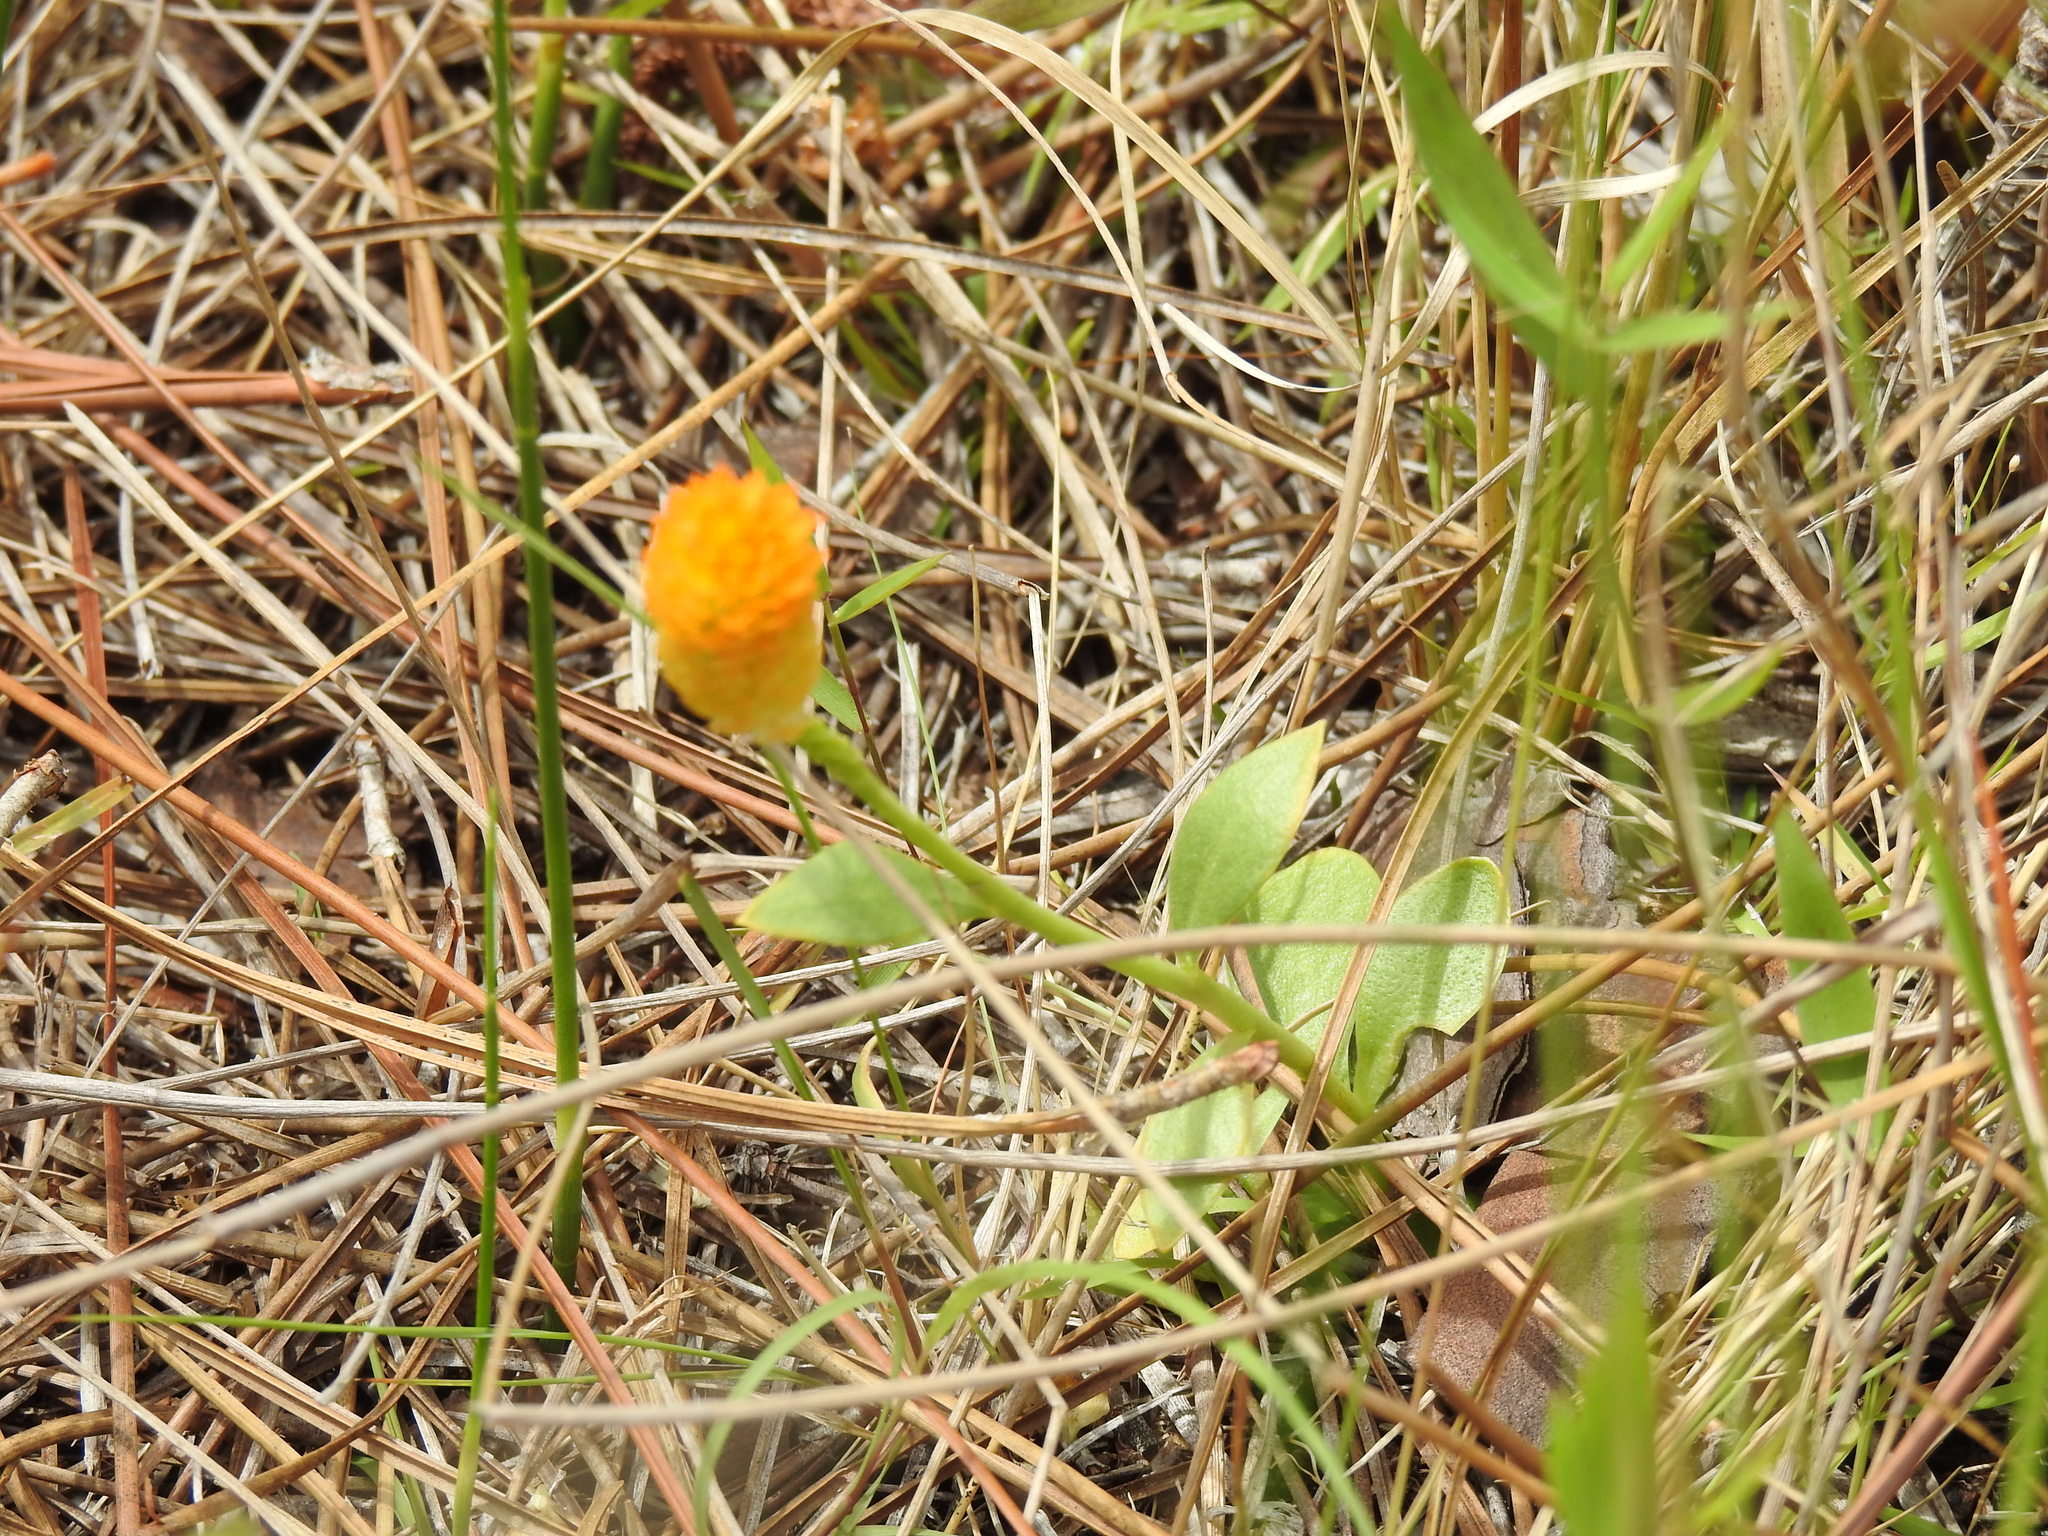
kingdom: Plantae
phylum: Tracheophyta
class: Magnoliopsida
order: Fabales
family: Polygalaceae
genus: Polygala
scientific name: Polygala lutea
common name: Orange milkwort
